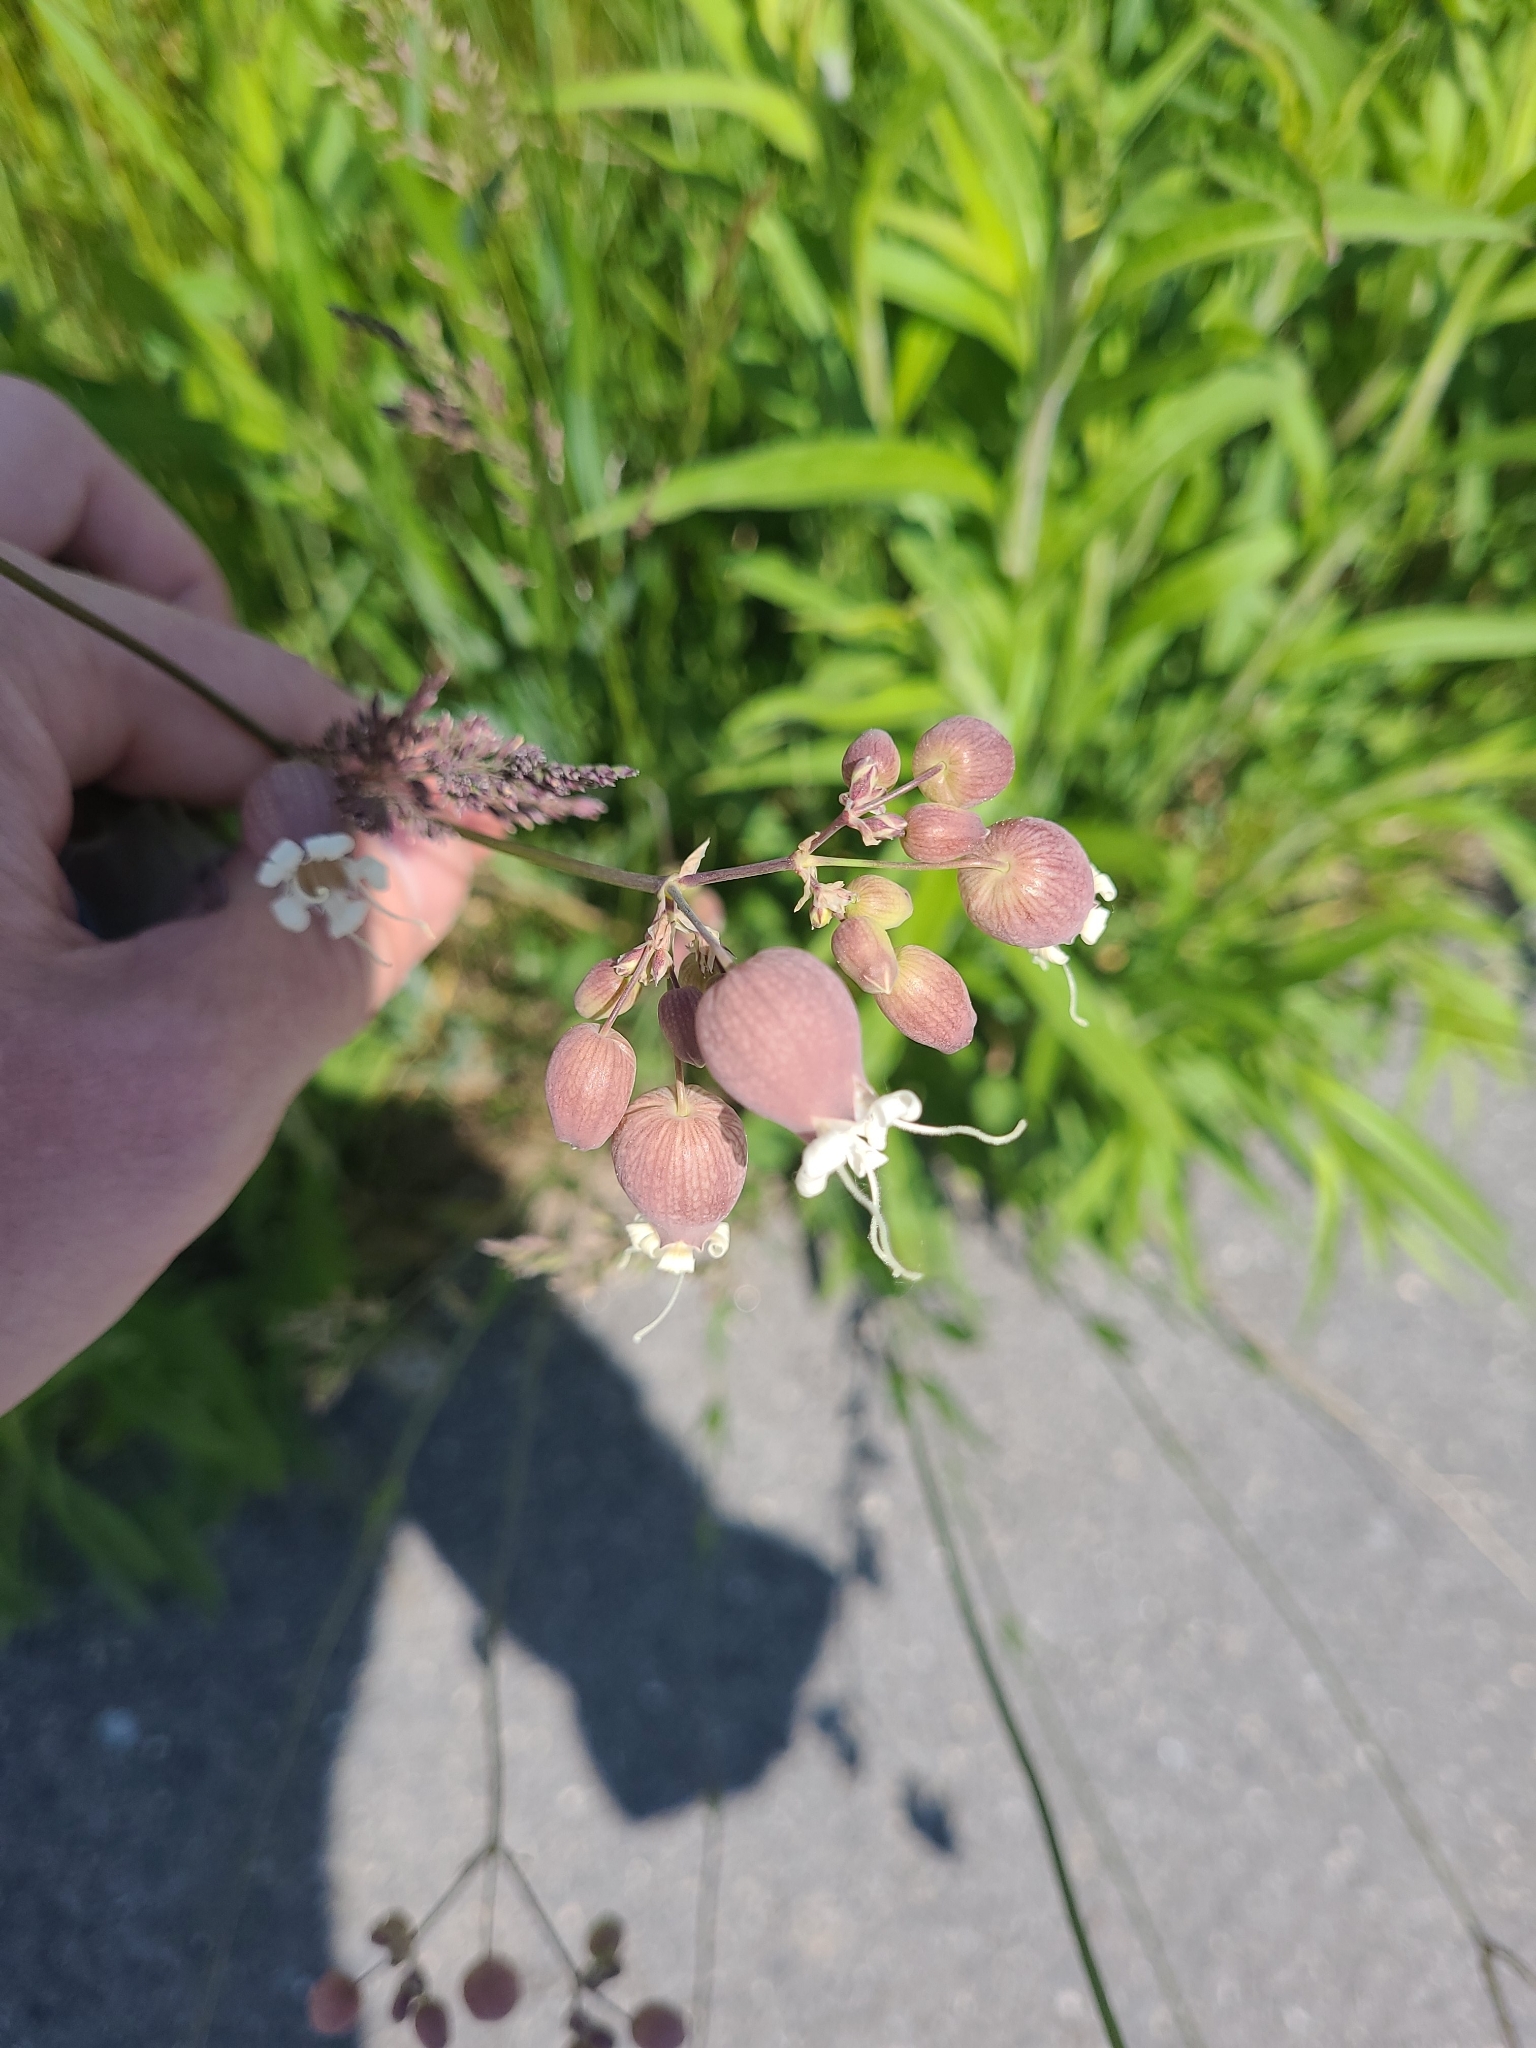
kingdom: Plantae
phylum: Tracheophyta
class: Magnoliopsida
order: Caryophyllales
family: Caryophyllaceae
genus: Silene
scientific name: Silene vulgaris
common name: Bladder campion
